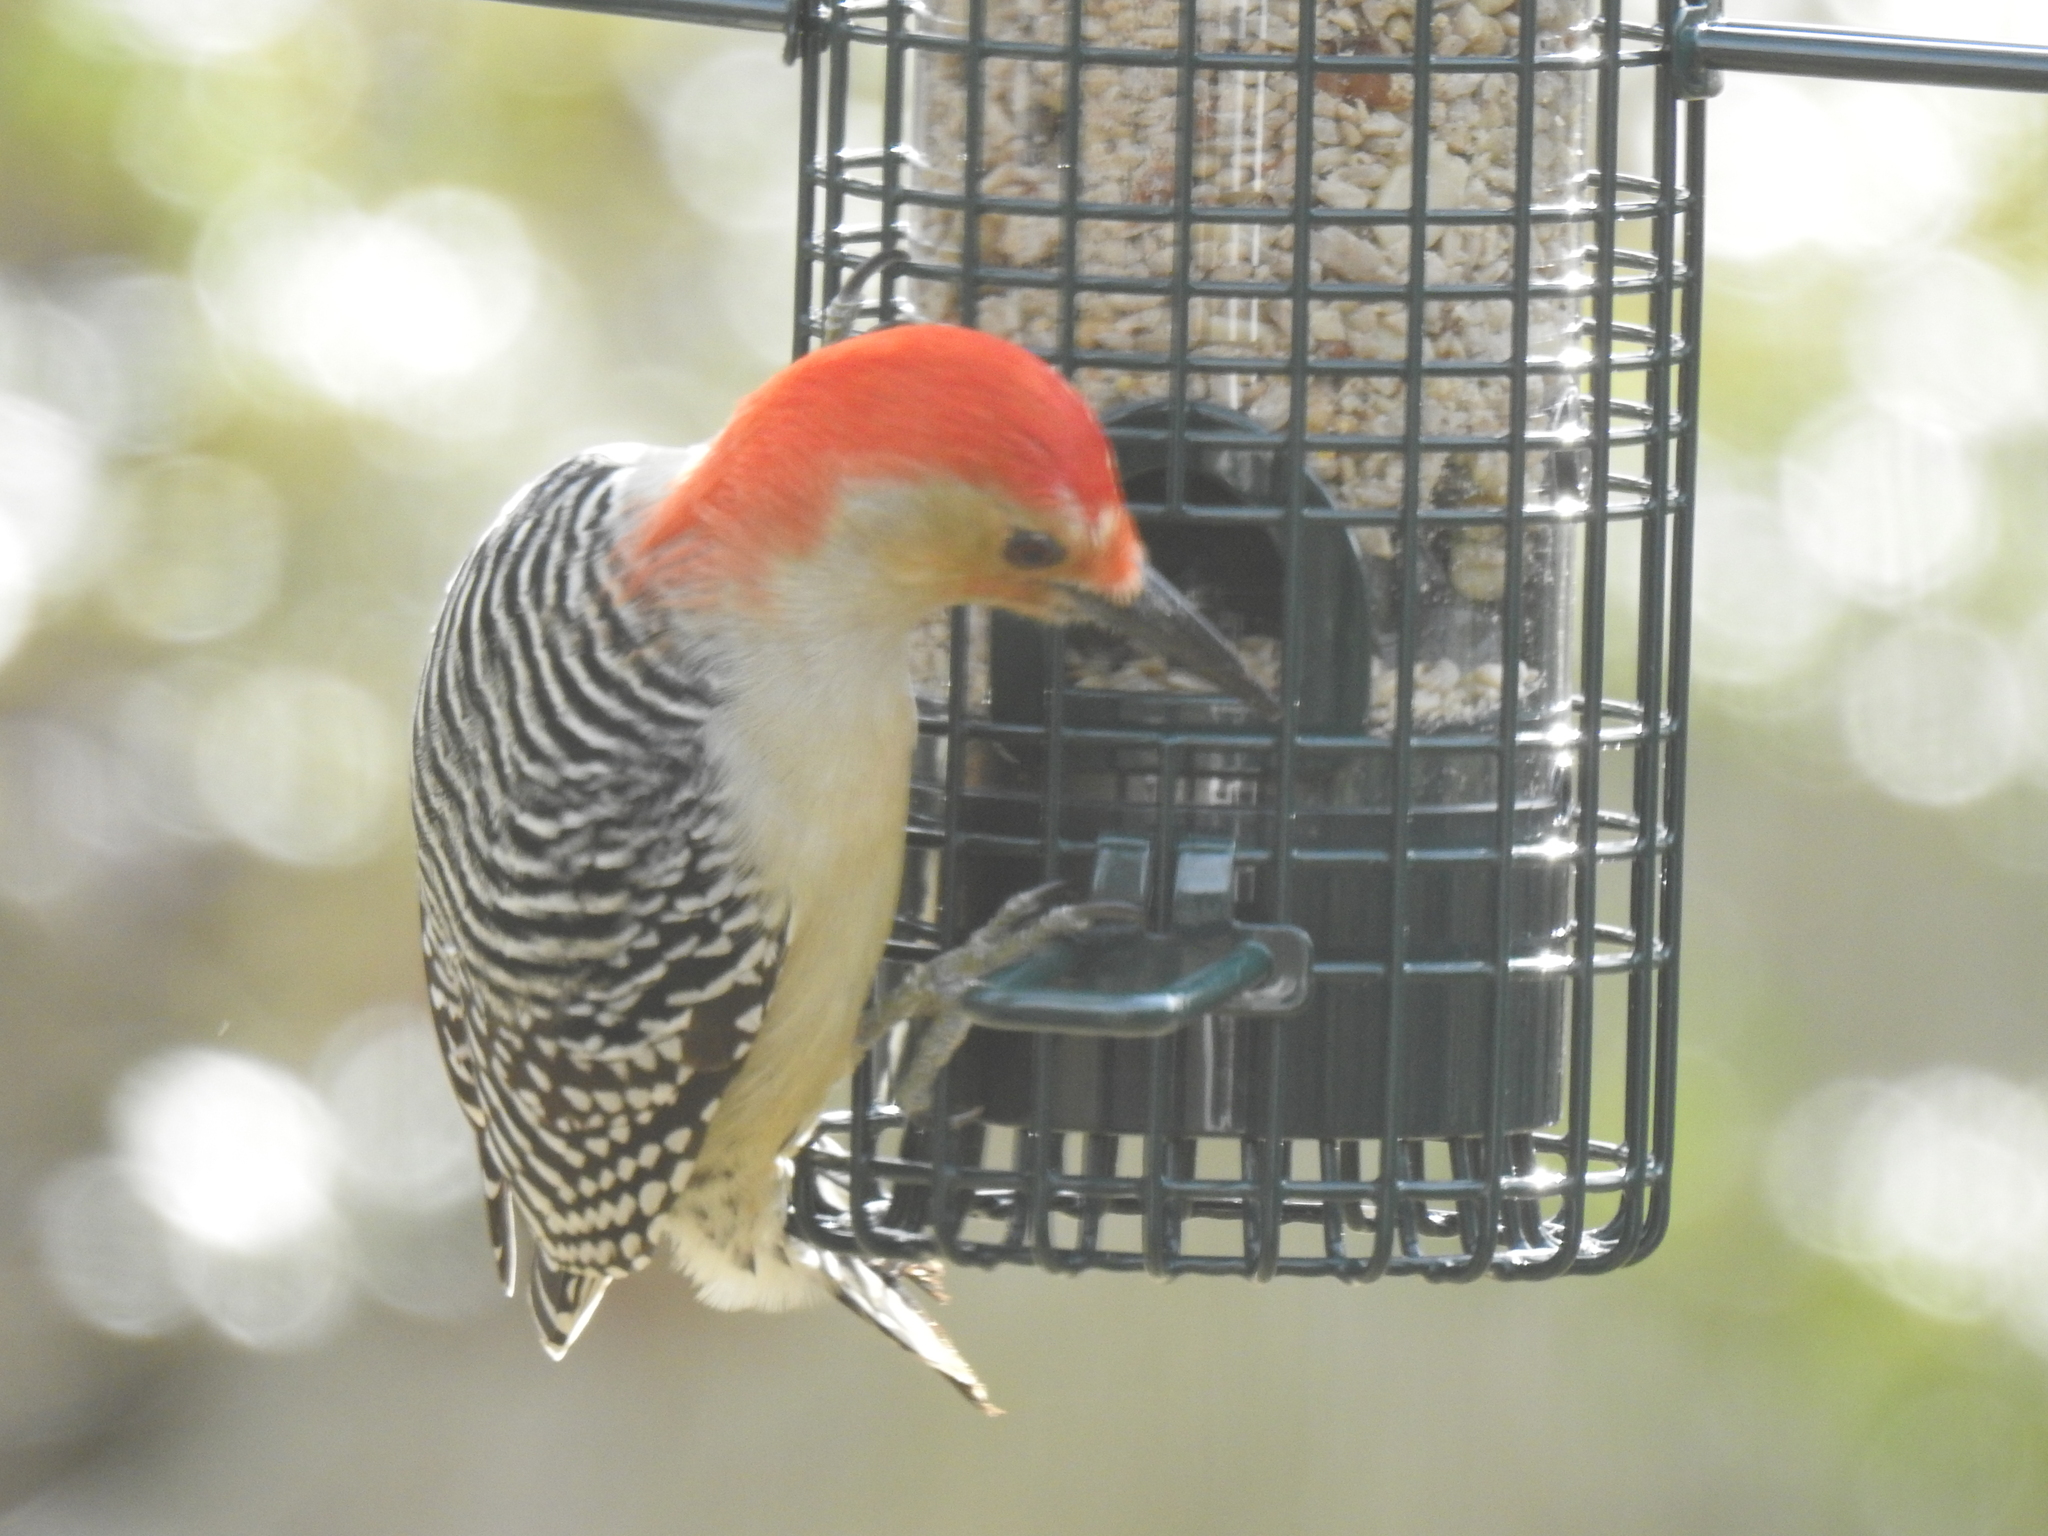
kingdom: Animalia
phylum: Chordata
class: Aves
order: Piciformes
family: Picidae
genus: Melanerpes
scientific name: Melanerpes carolinus
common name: Red-bellied woodpecker
